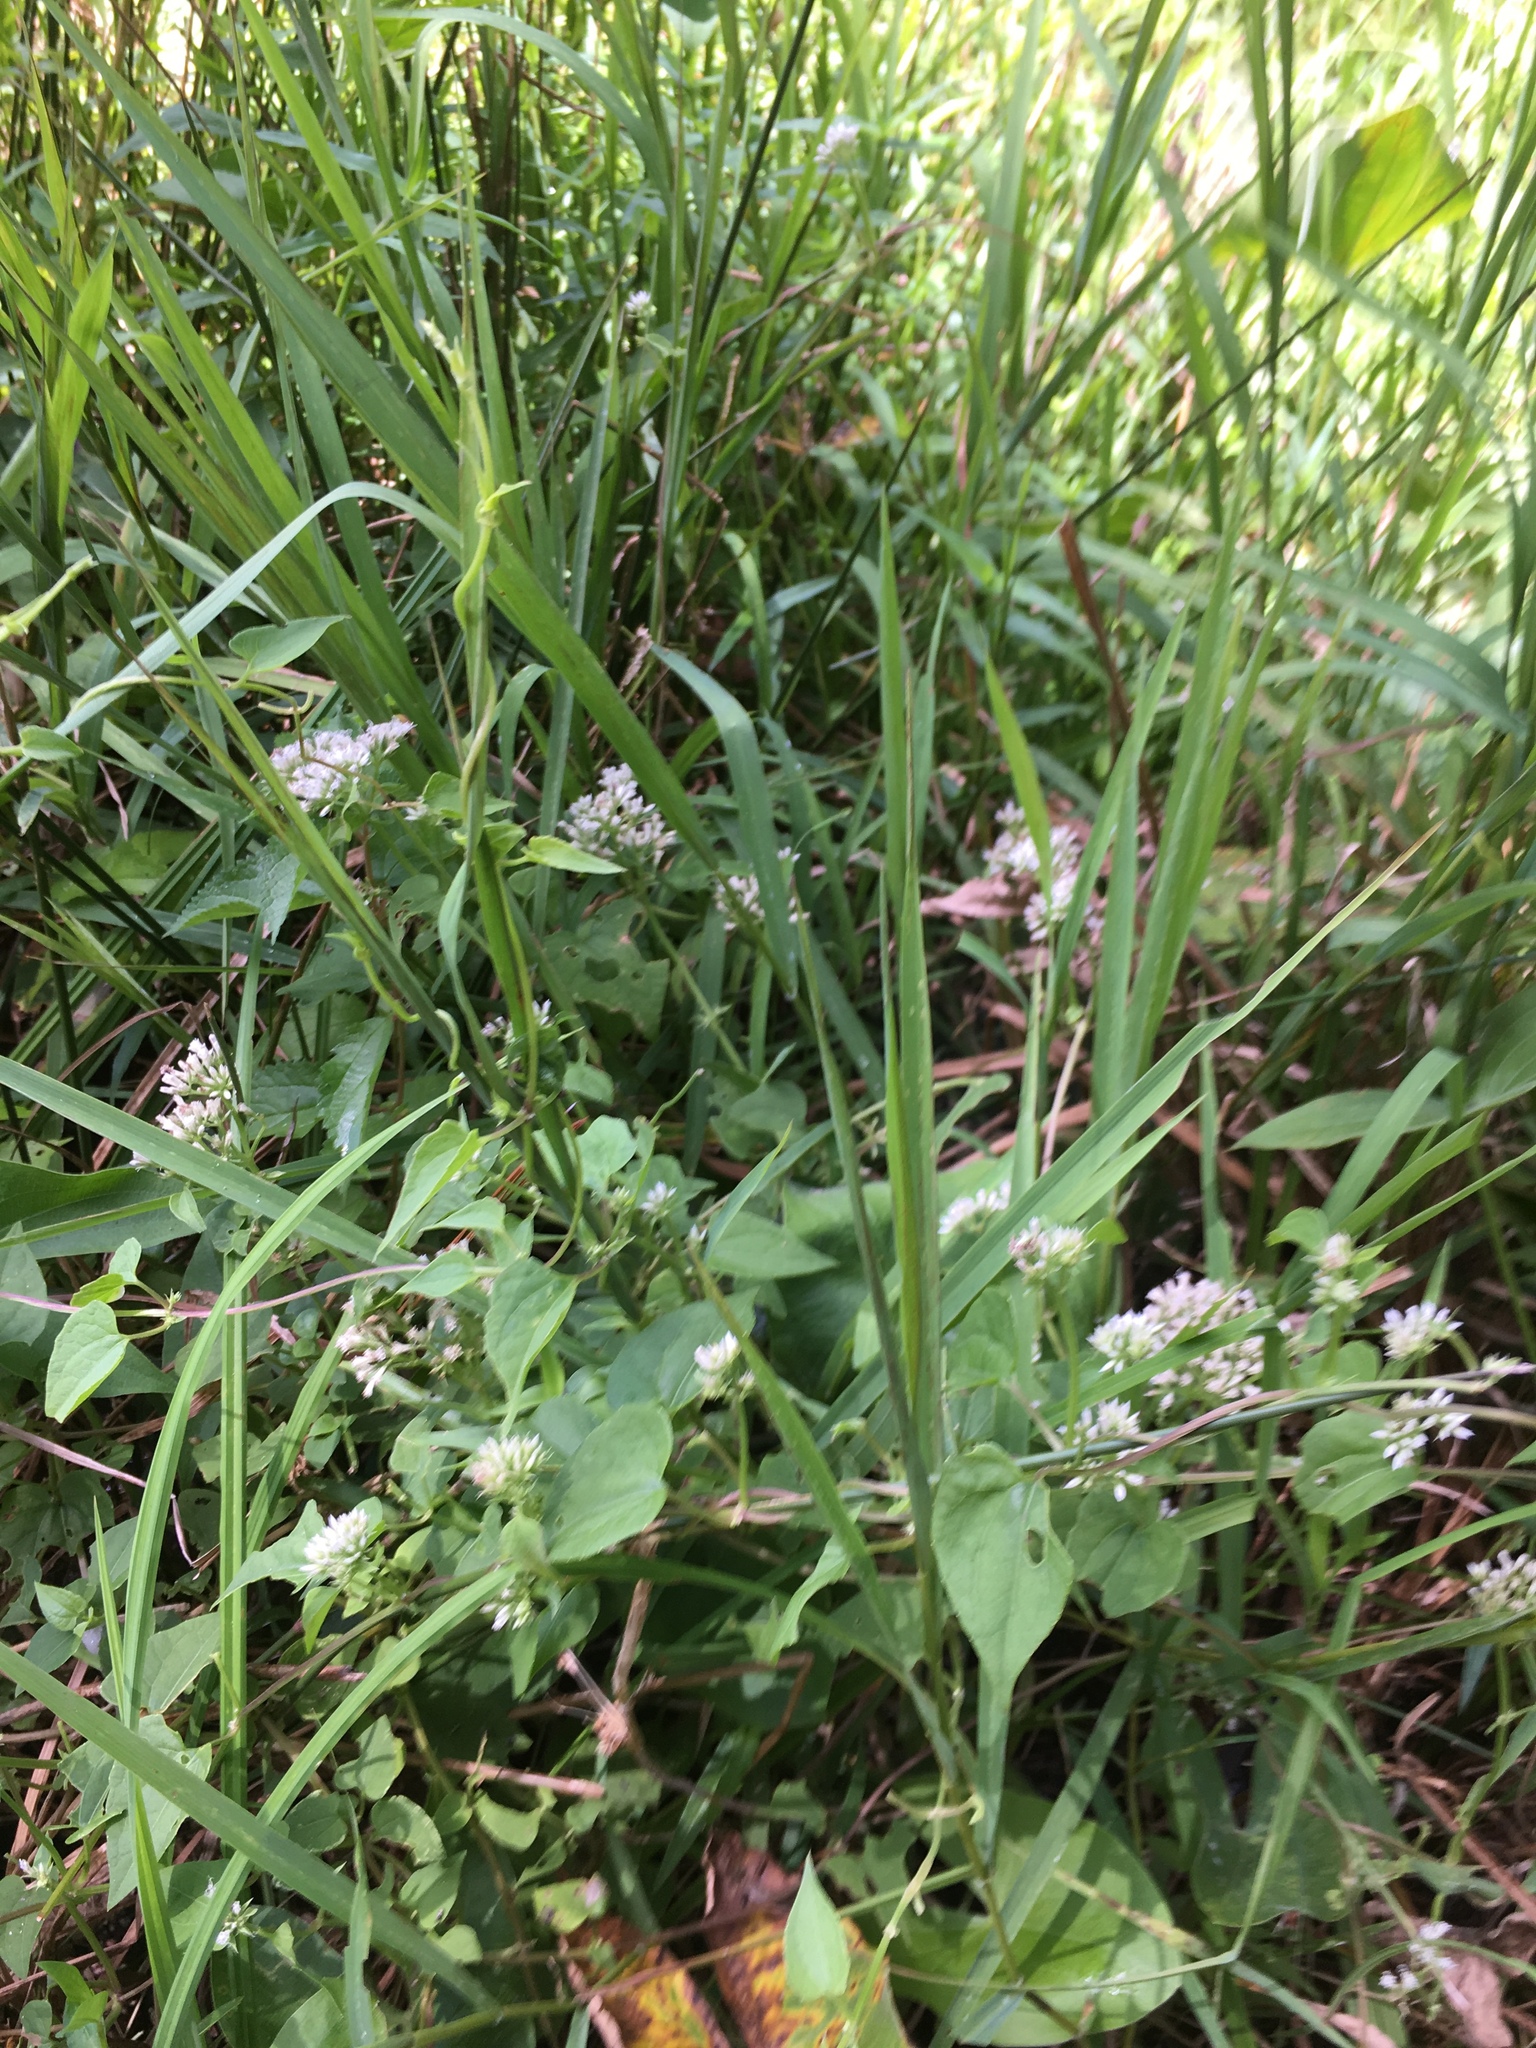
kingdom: Plantae
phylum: Tracheophyta
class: Magnoliopsida
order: Asterales
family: Asteraceae
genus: Mikania
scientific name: Mikania scandens
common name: Climbing hempvine
